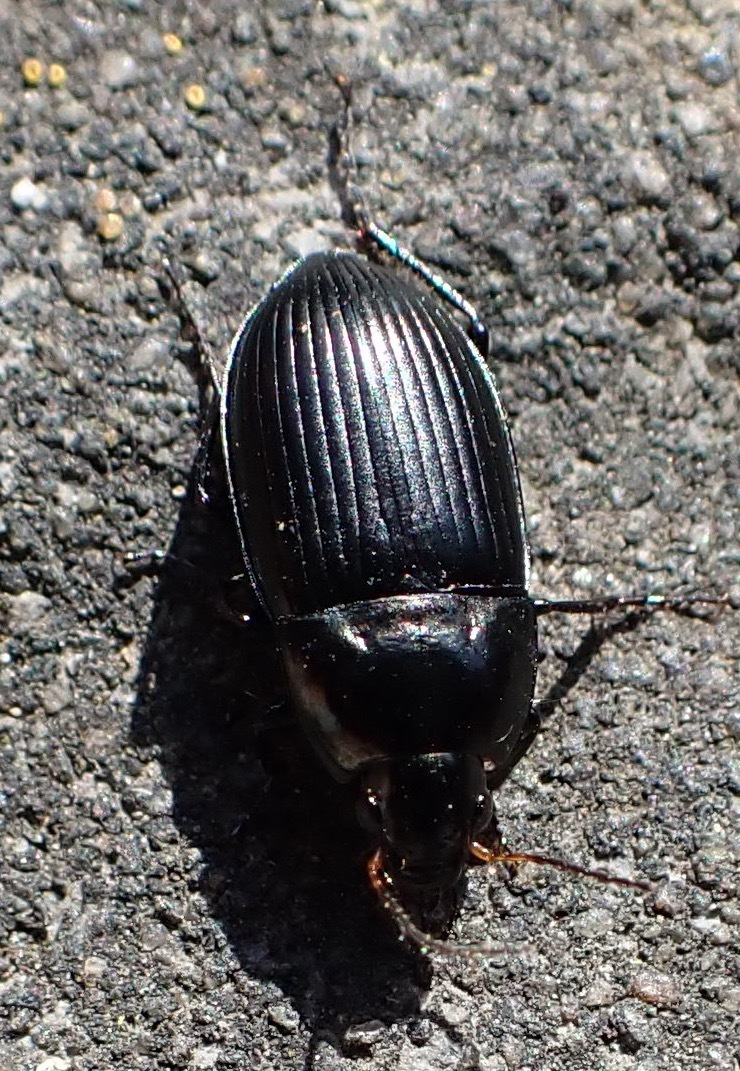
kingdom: Animalia
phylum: Arthropoda
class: Insecta
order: Coleoptera
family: Carabidae
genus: Amara
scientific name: Amara ovata
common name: Ovate harp ground beetle
